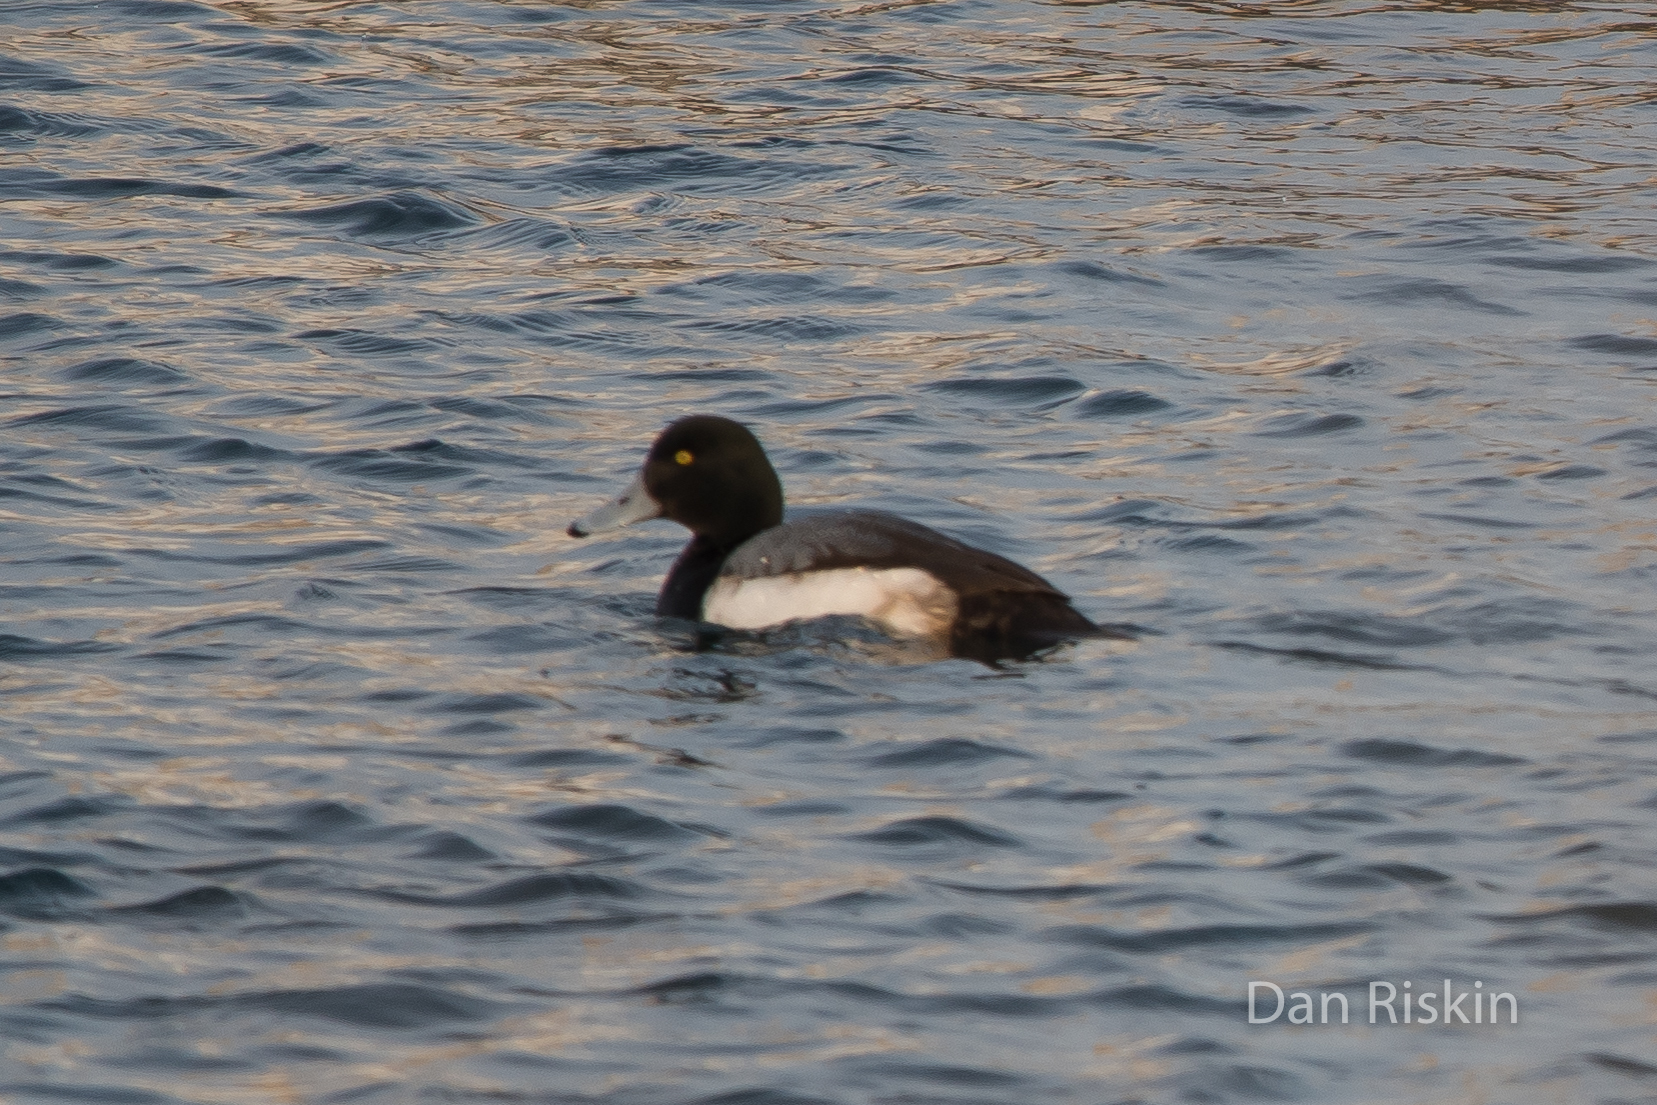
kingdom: Animalia
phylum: Chordata
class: Aves
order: Anseriformes
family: Anatidae
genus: Aythya
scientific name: Aythya marila
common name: Greater scaup
